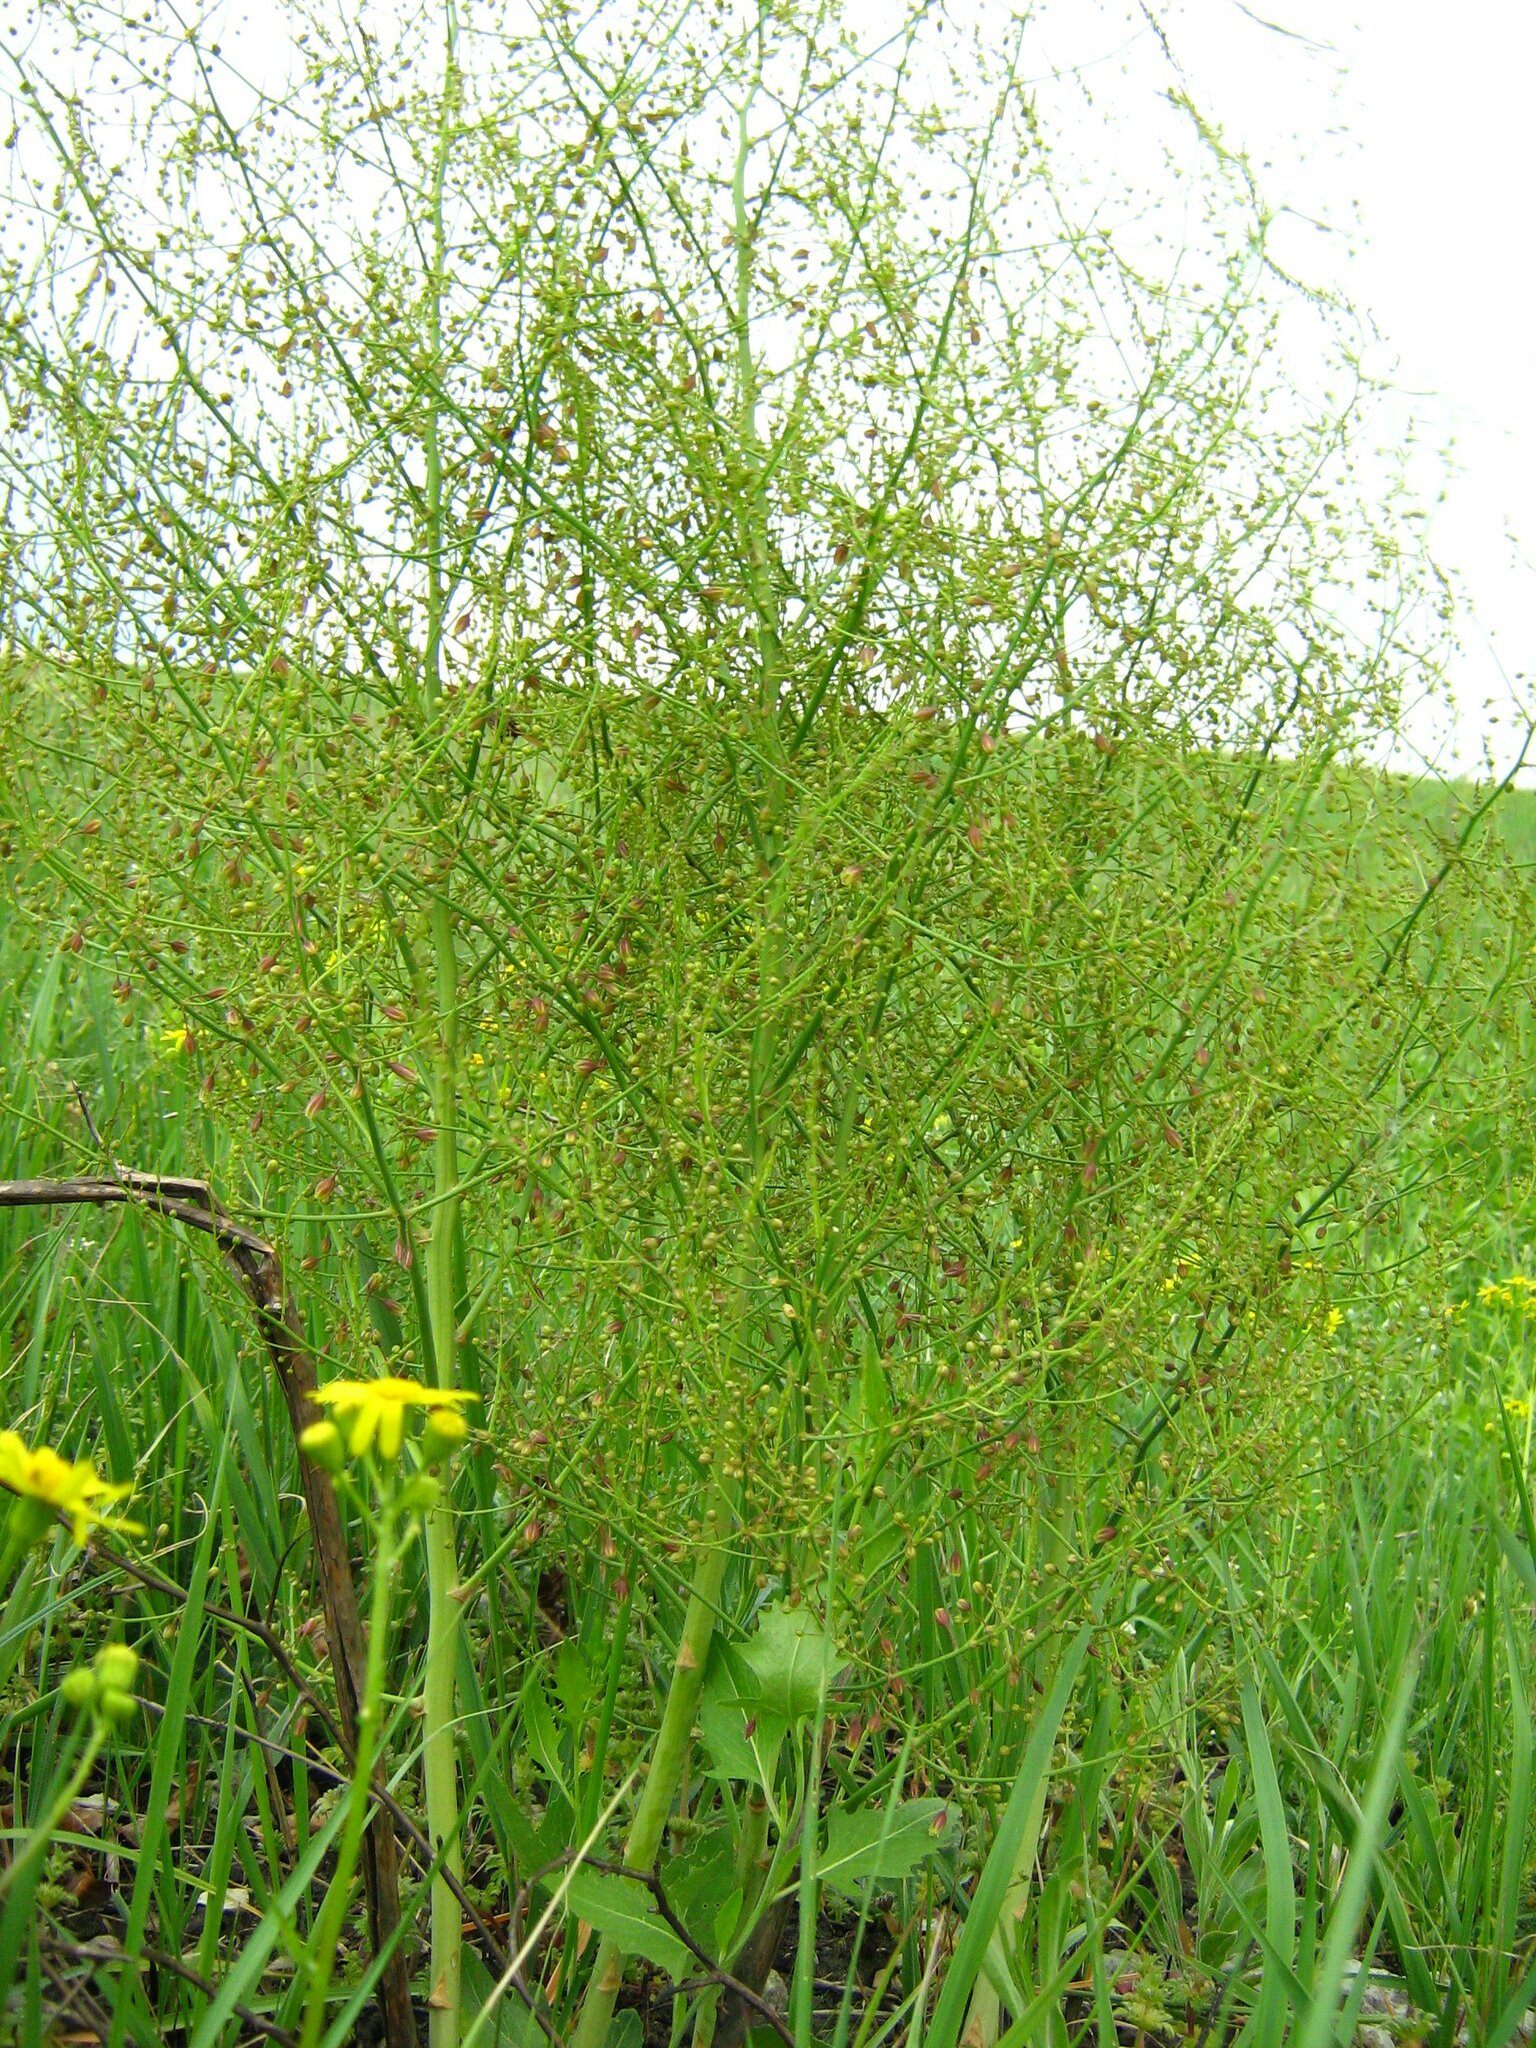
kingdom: Plantae
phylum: Tracheophyta
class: Liliopsida
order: Asparagales
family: Asparagaceae
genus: Asparagus
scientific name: Asparagus officinalis
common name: Garden asparagus
